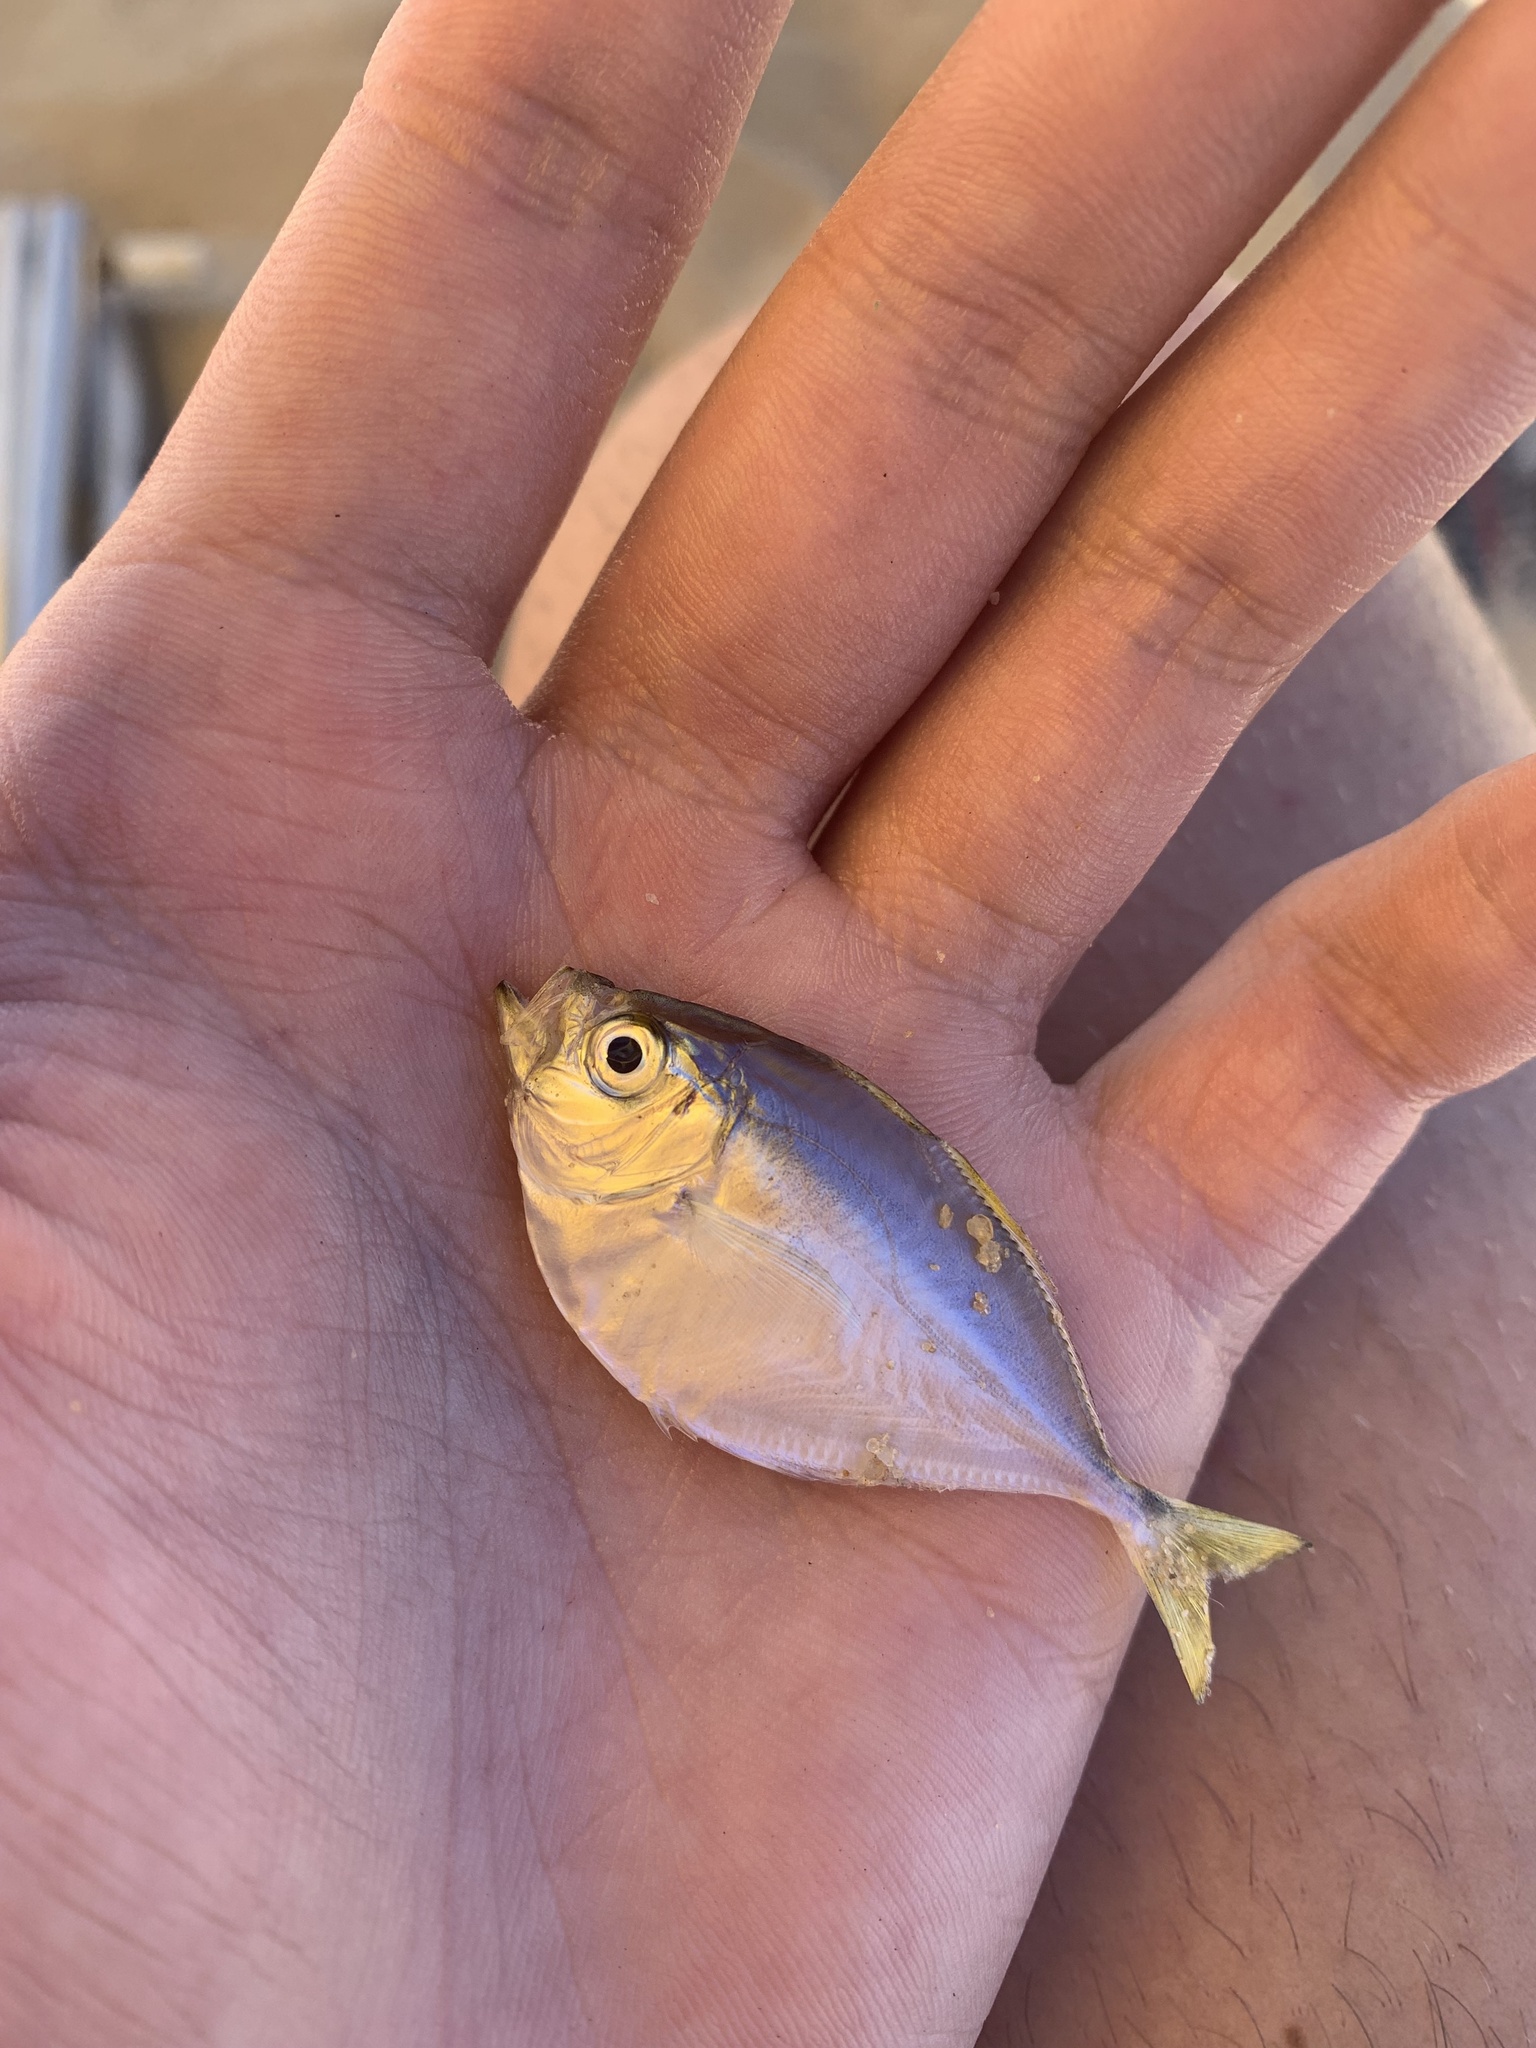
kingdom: Animalia
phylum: Chordata
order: Perciformes
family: Carangidae
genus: Chloroscombrus
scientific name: Chloroscombrus chrysurus
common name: Bumper
